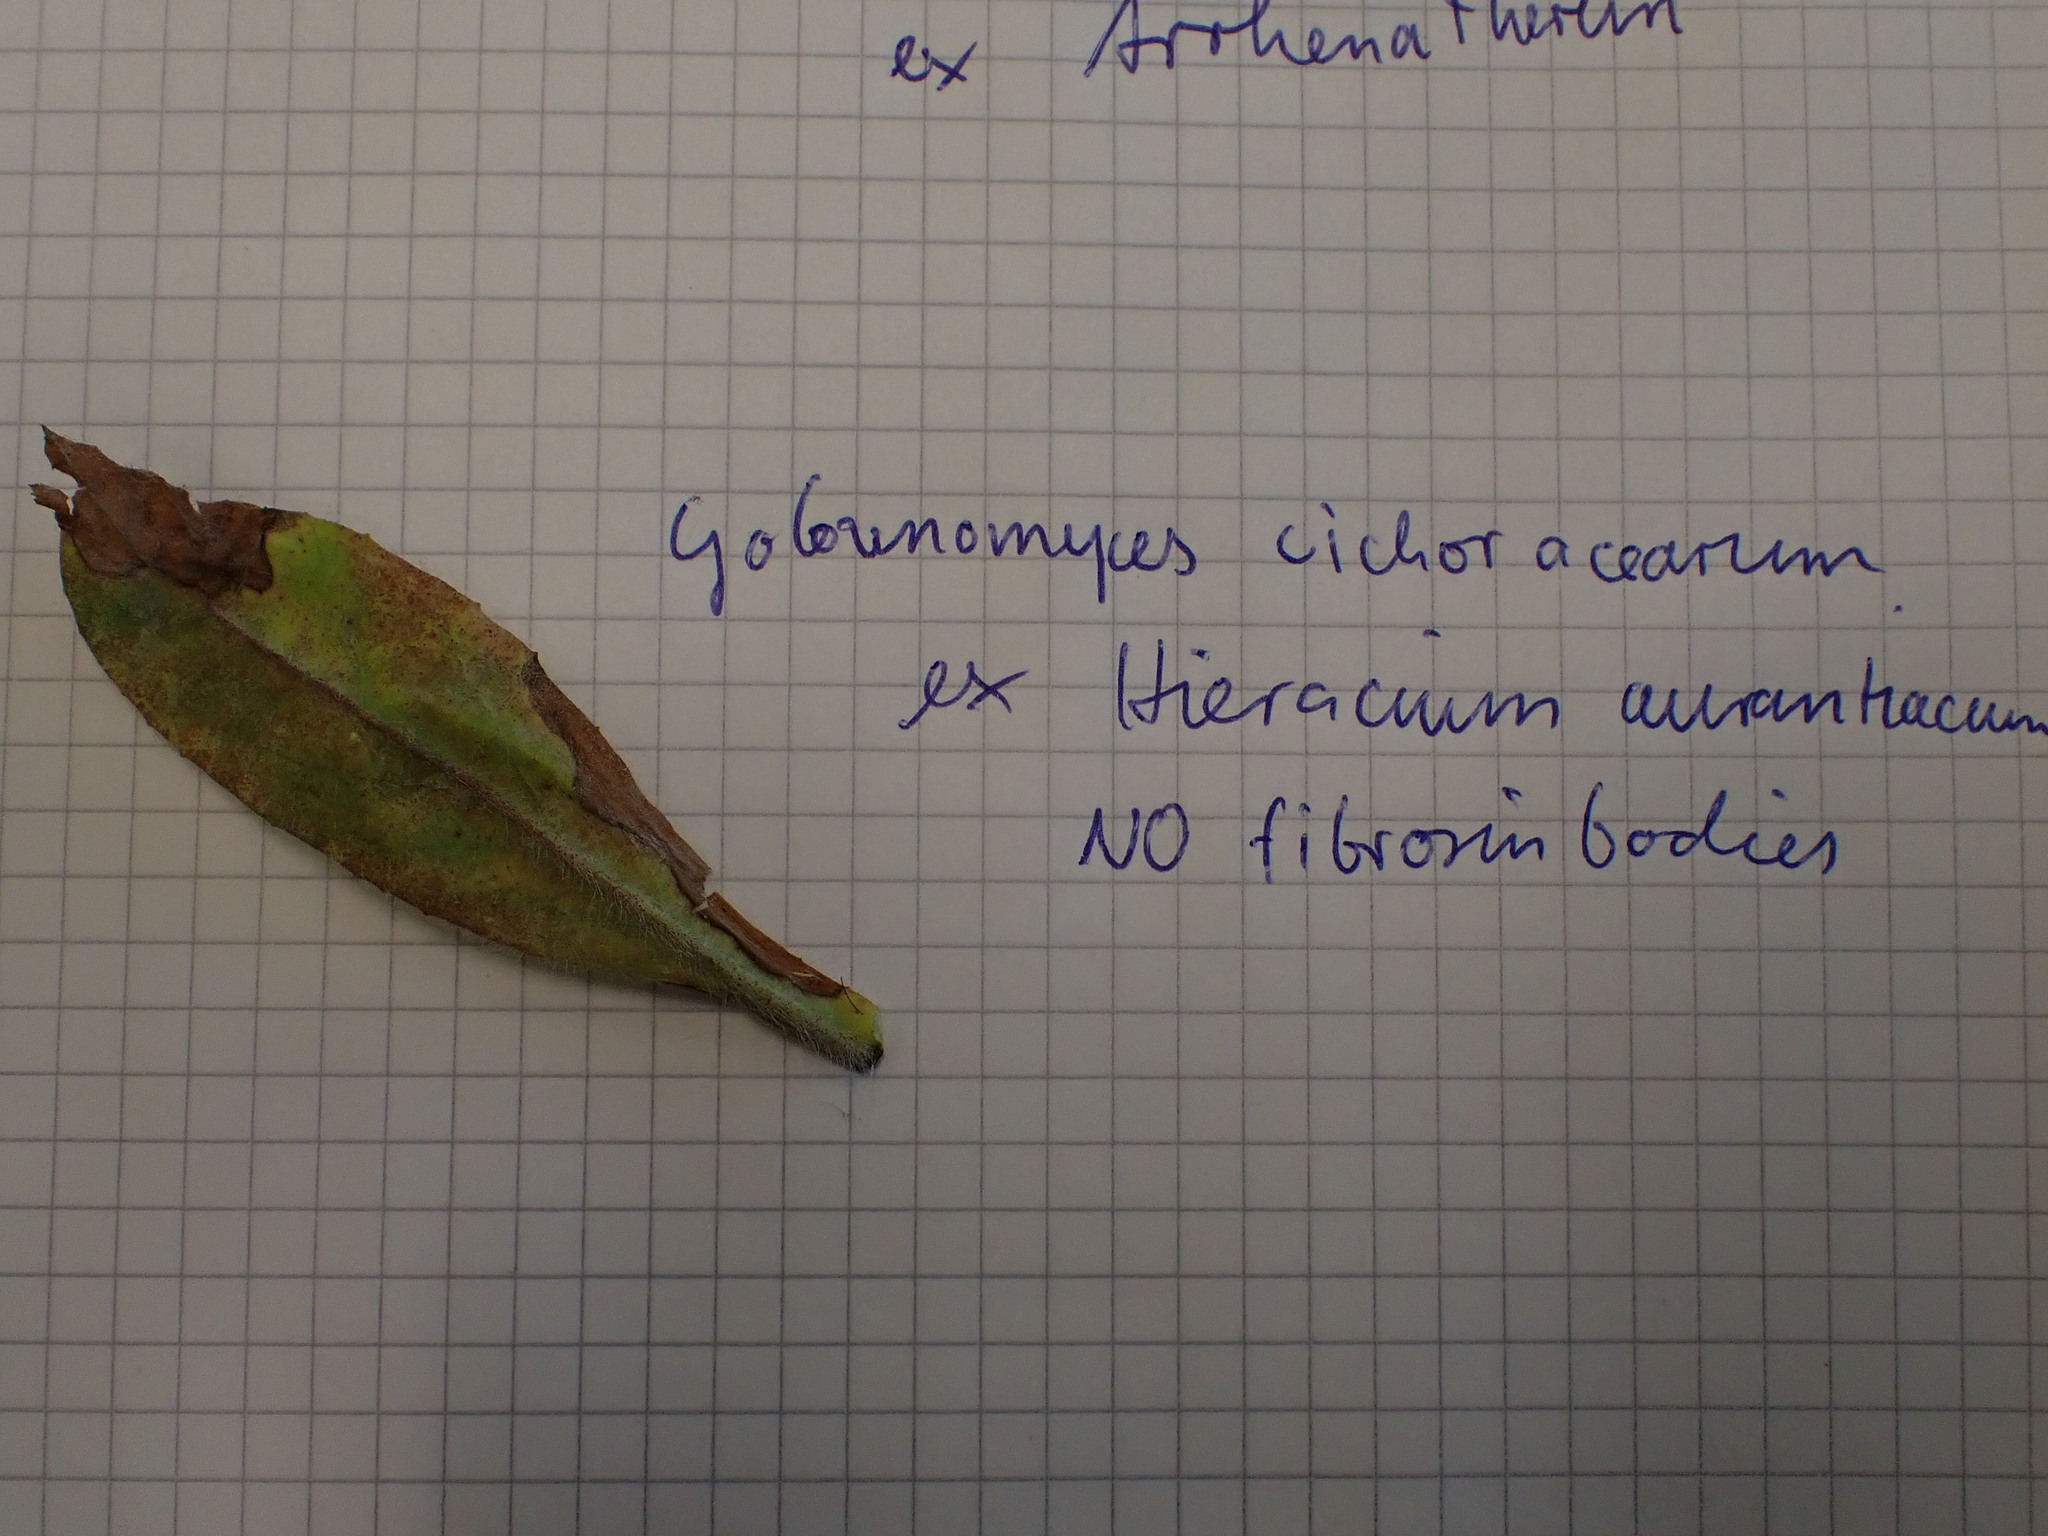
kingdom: Fungi
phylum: Ascomycota
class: Leotiomycetes
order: Helotiales
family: Erysiphaceae
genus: Golovinomyces
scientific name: Golovinomyces hieraciorum
